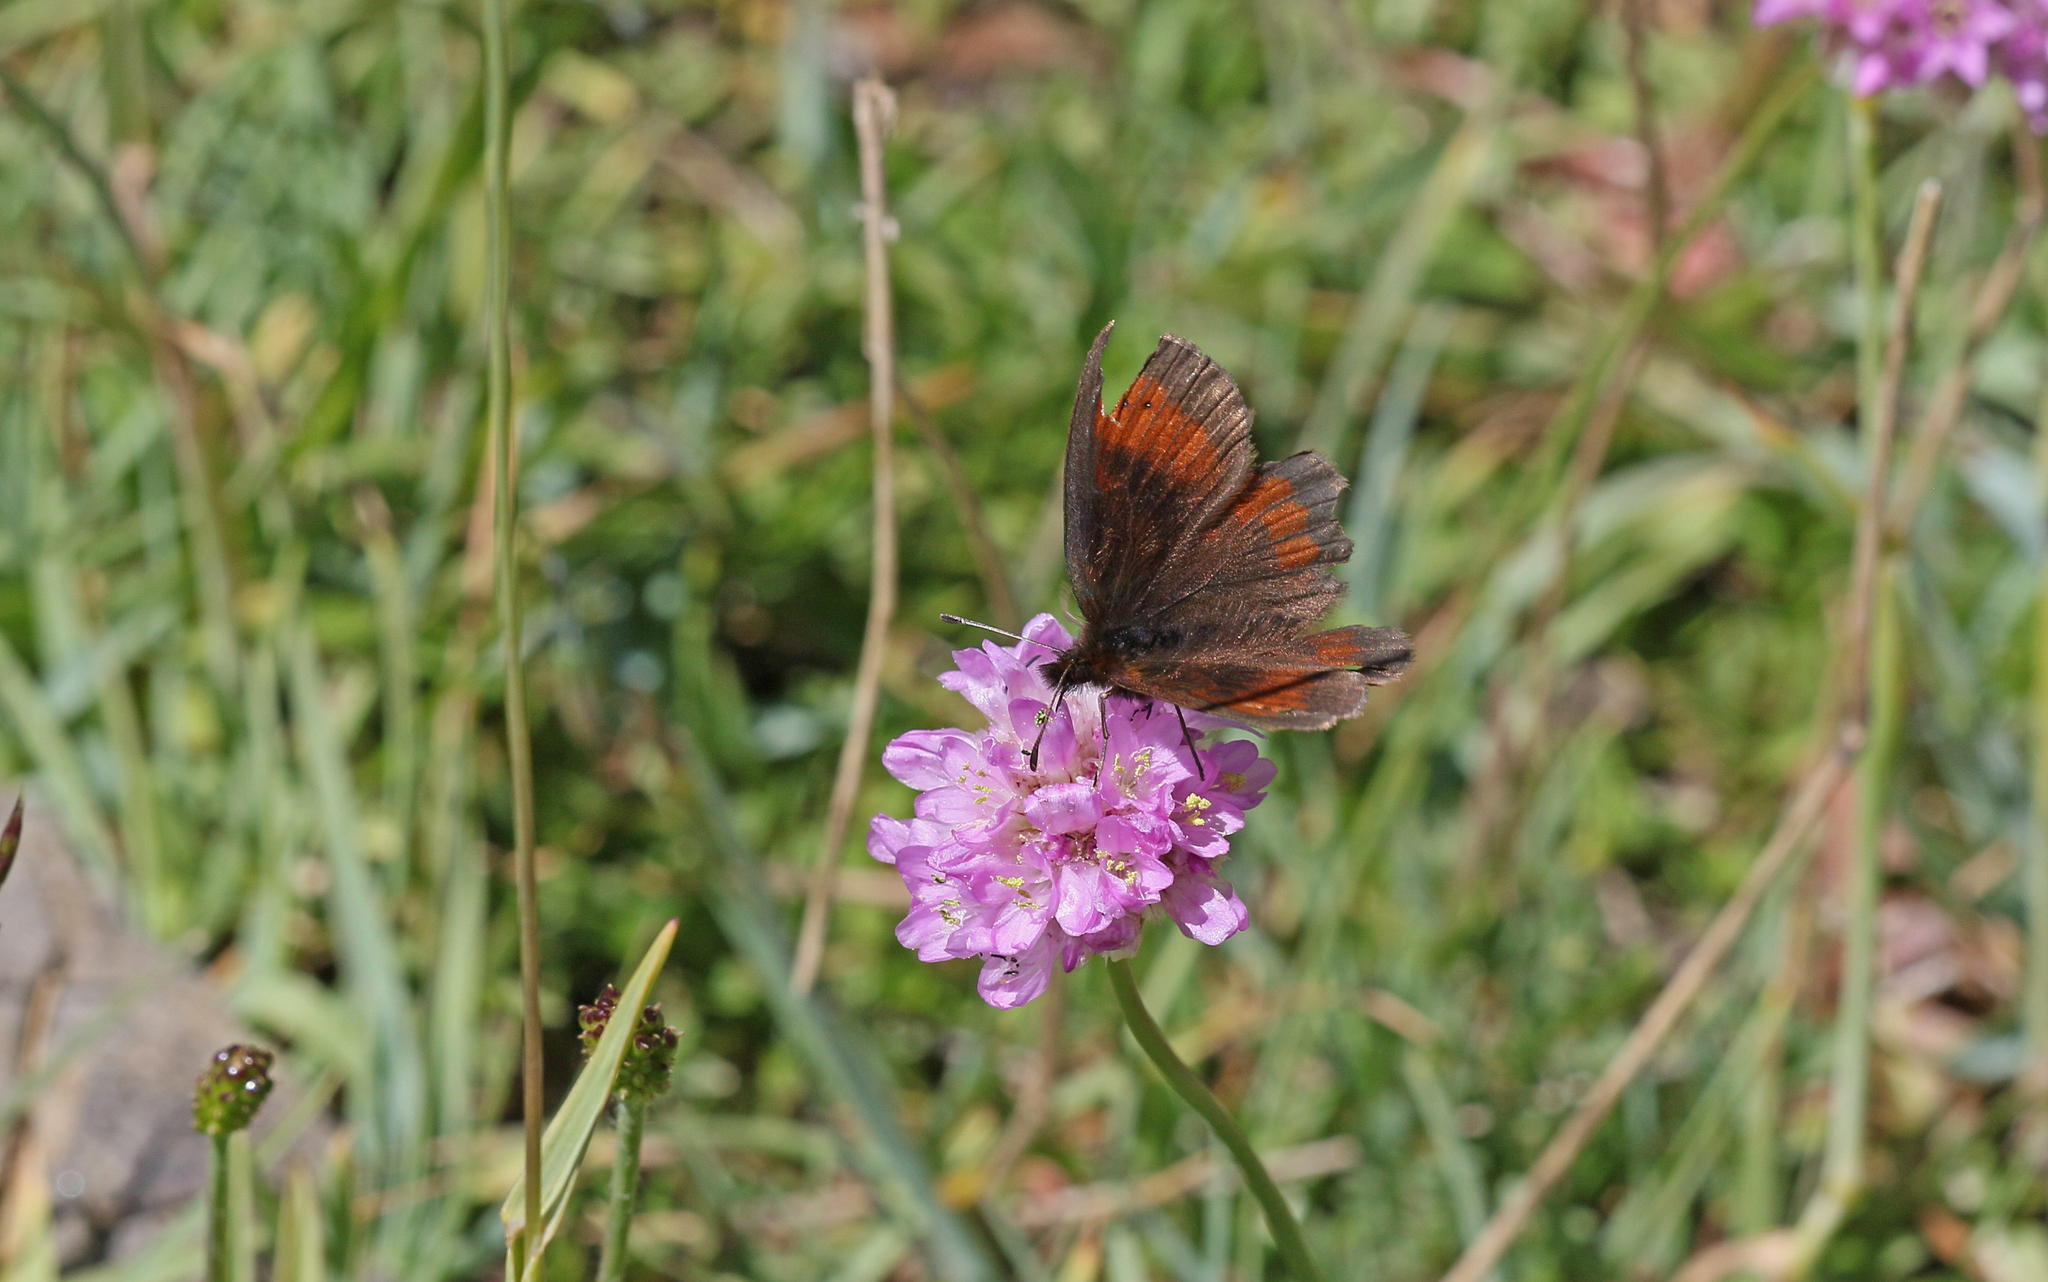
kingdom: Animalia
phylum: Arthropoda
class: Insecta
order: Lepidoptera
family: Nymphalidae
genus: Erebia
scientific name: Erebia mnestra
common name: Mnestra’s ringlet
